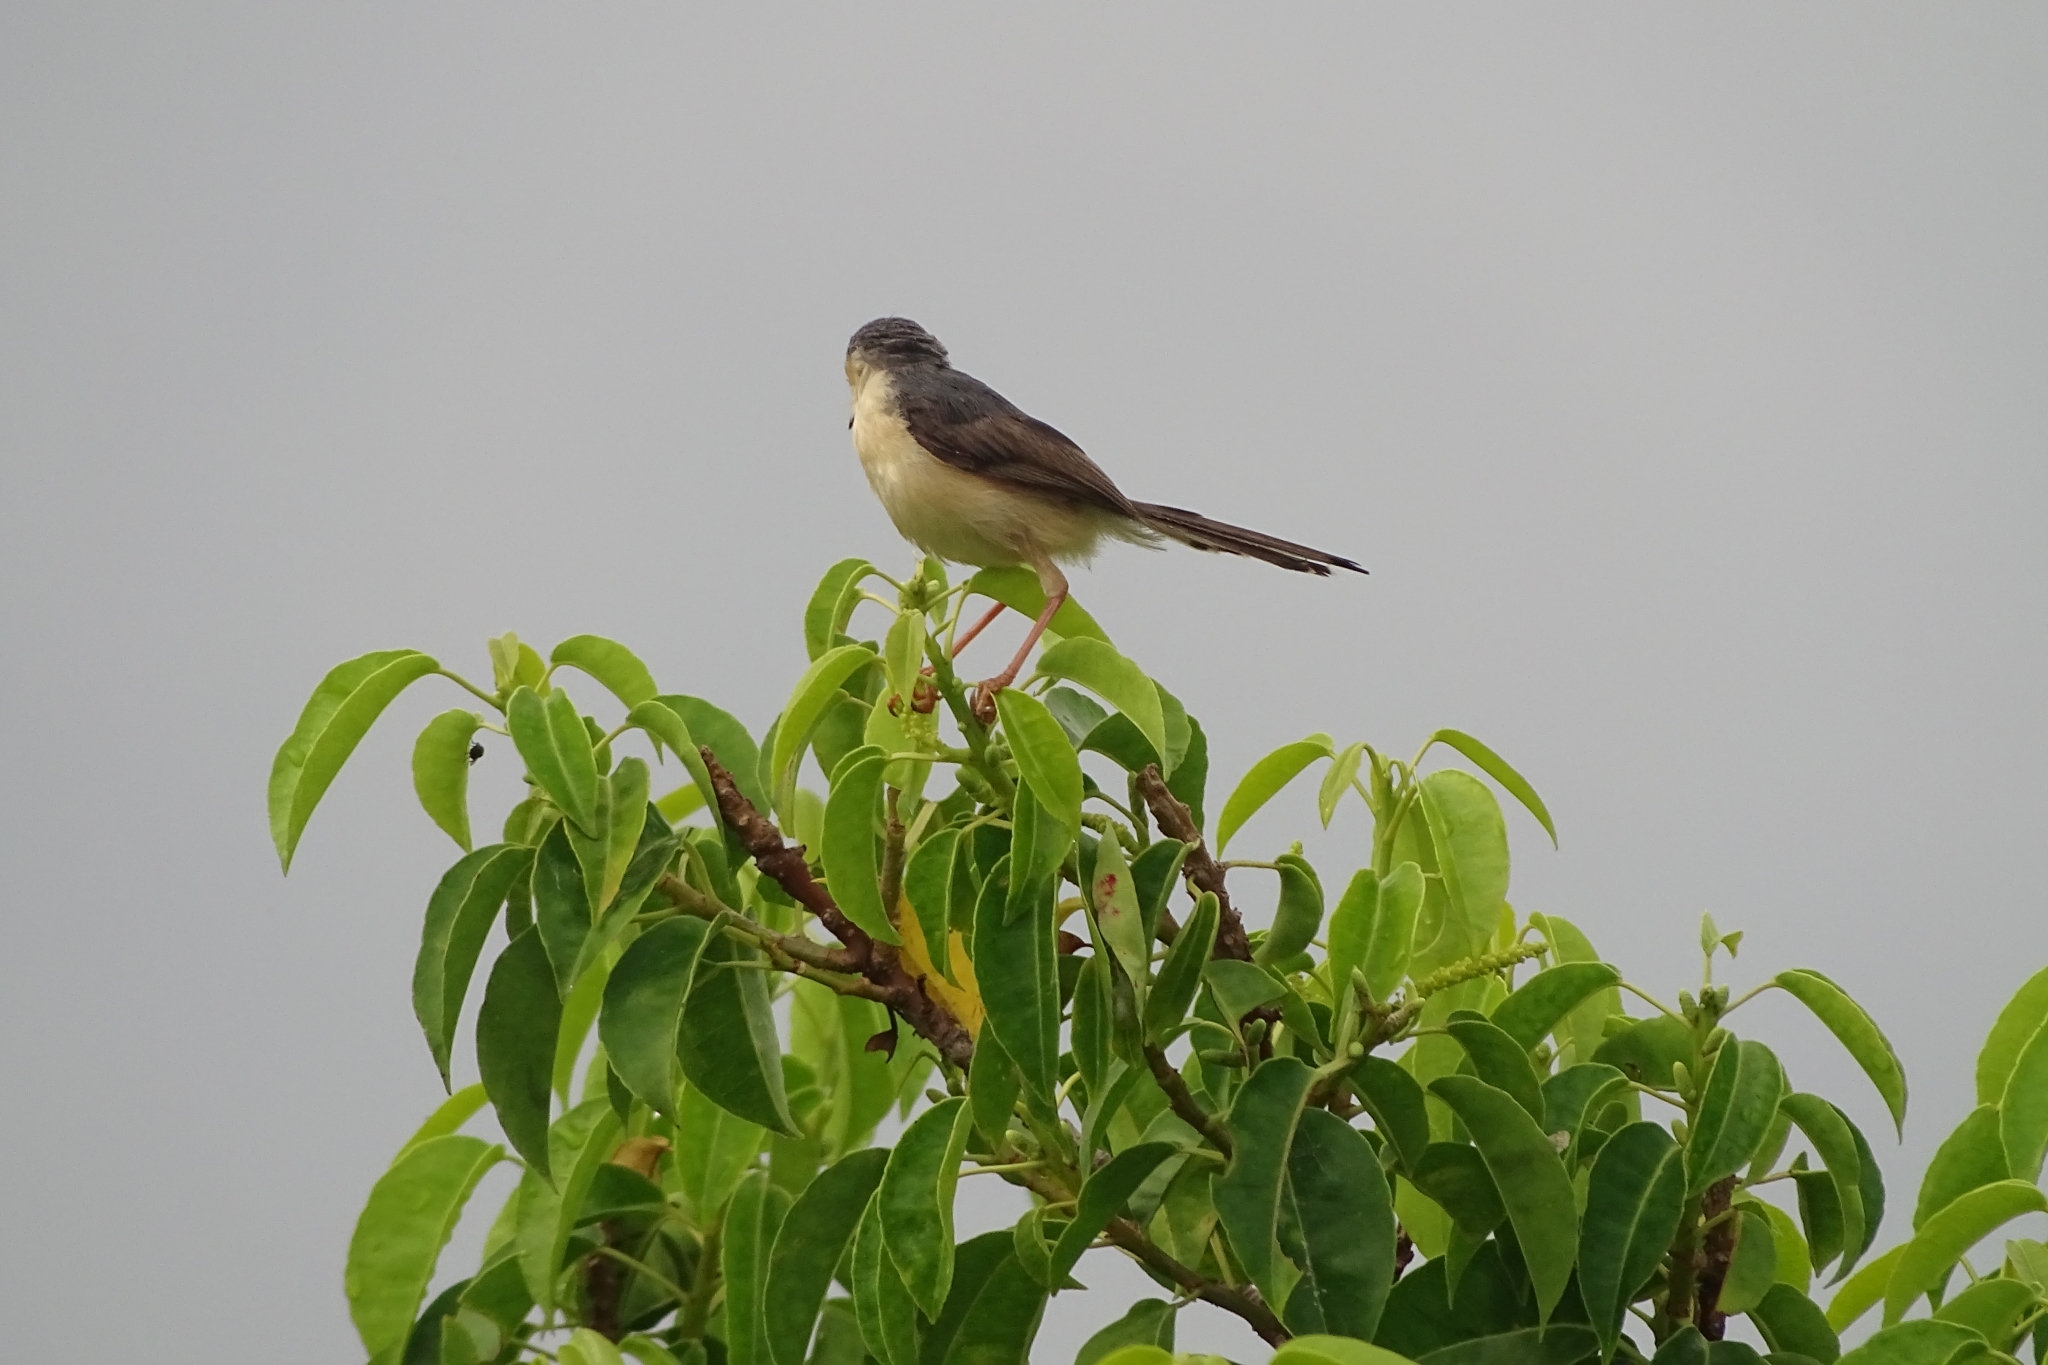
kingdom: Animalia
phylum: Chordata
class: Aves
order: Passeriformes
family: Cisticolidae
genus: Prinia
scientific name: Prinia socialis
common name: Ashy prinia
